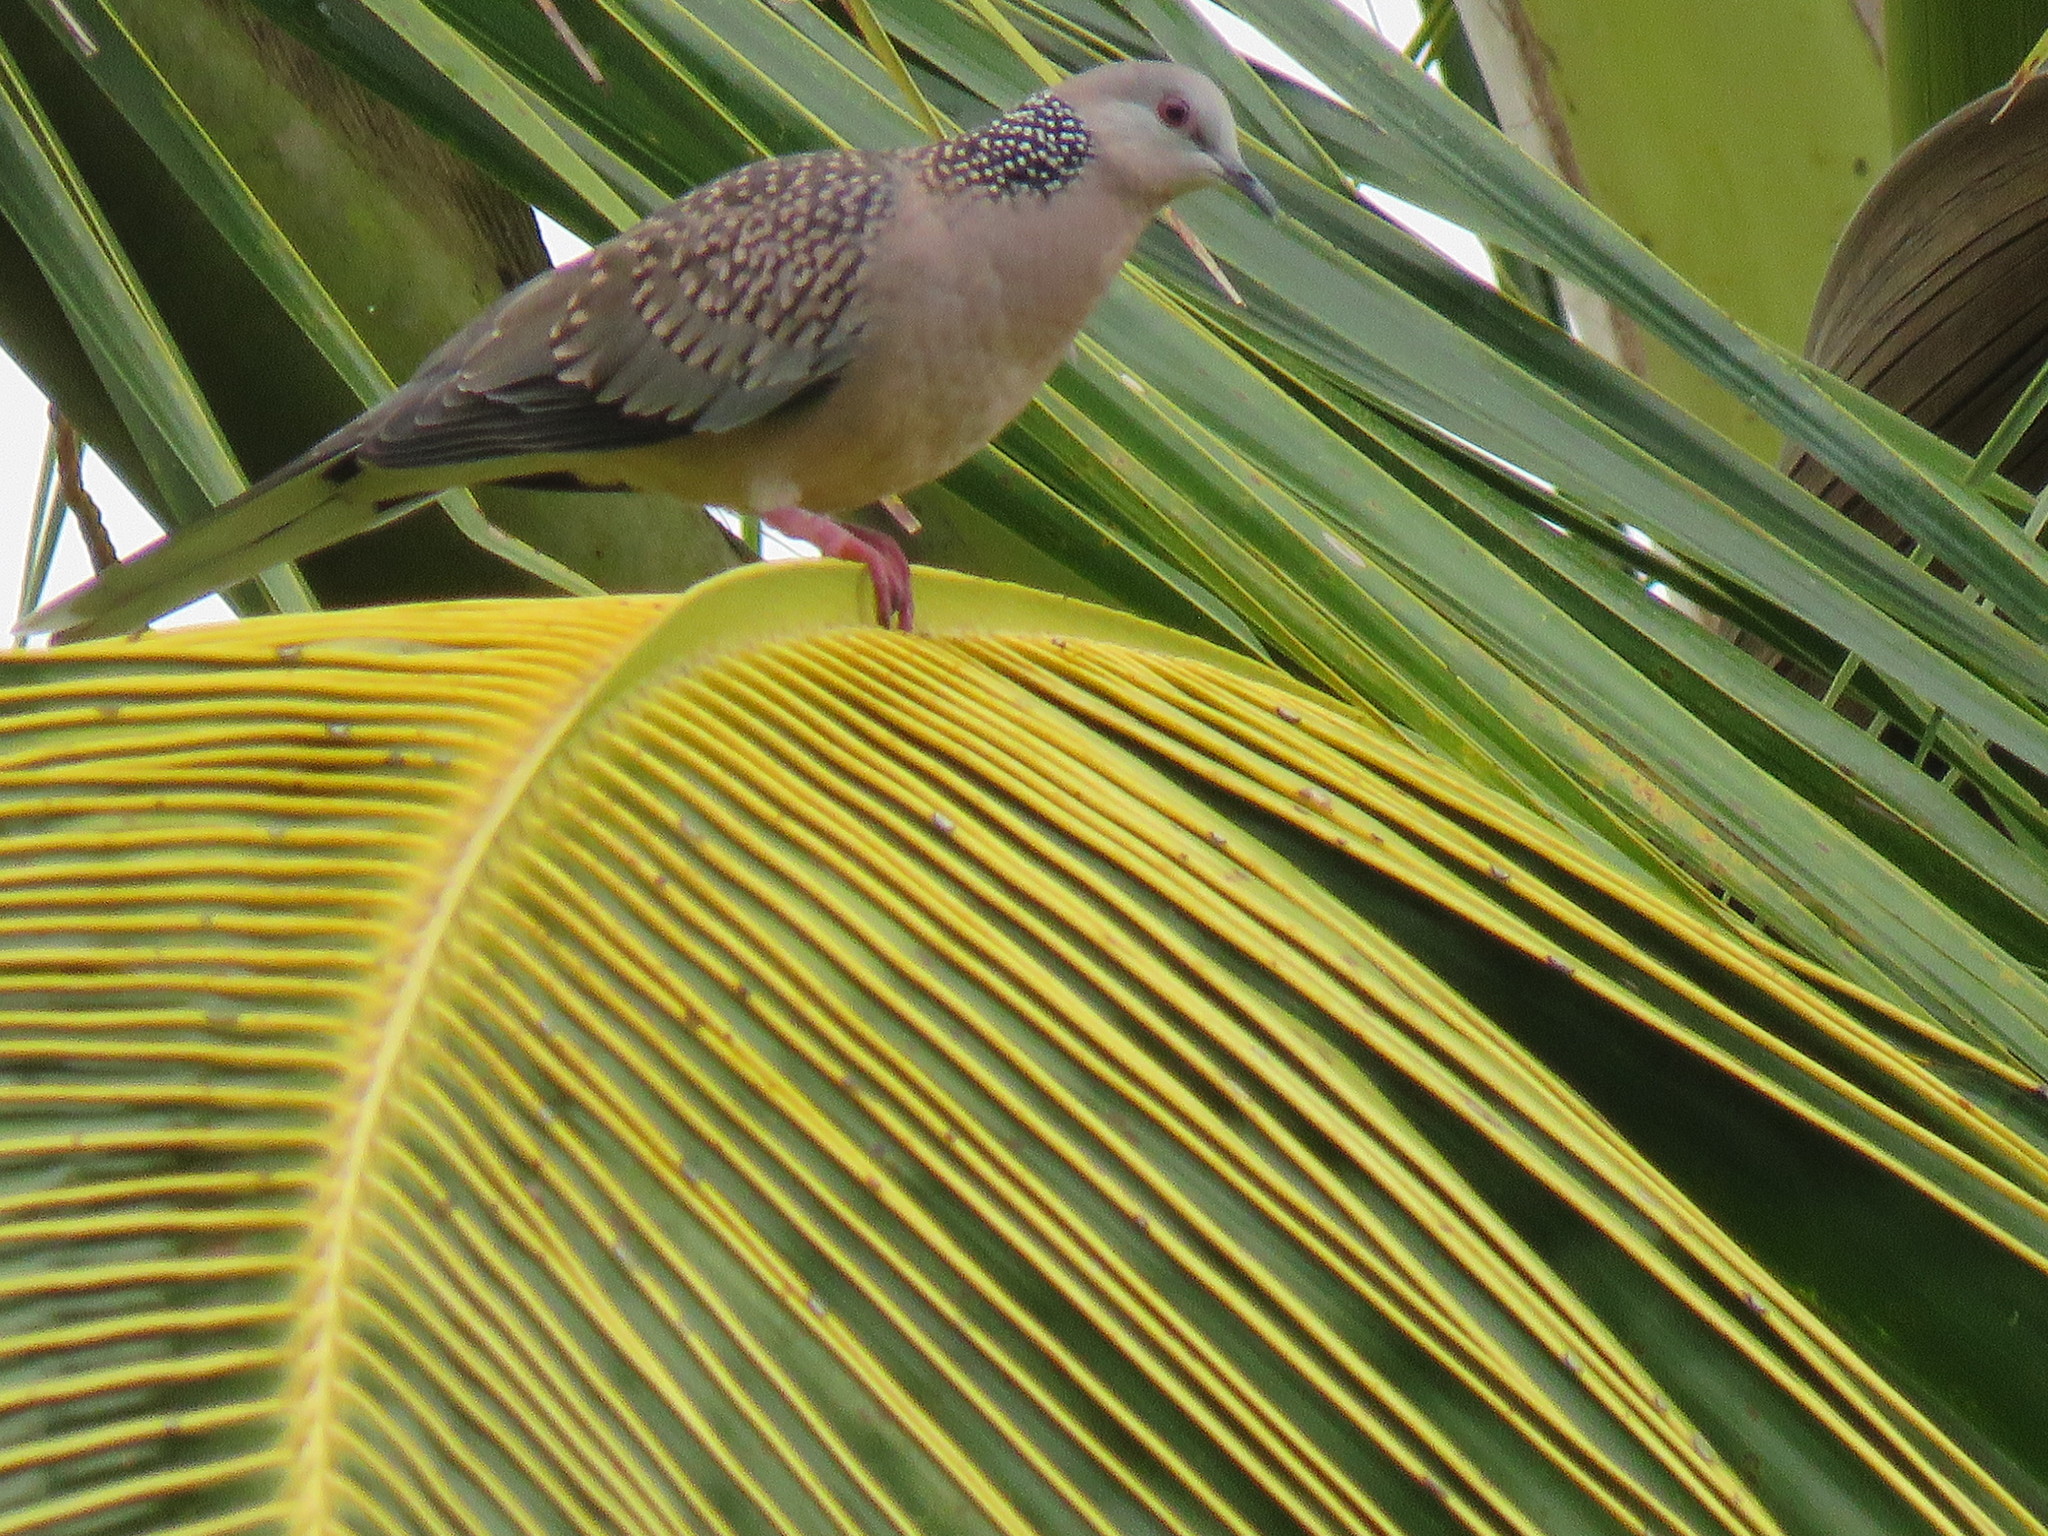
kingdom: Animalia
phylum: Chordata
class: Aves
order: Columbiformes
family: Columbidae
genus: Spilopelia
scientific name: Spilopelia chinensis
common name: Spotted dove
